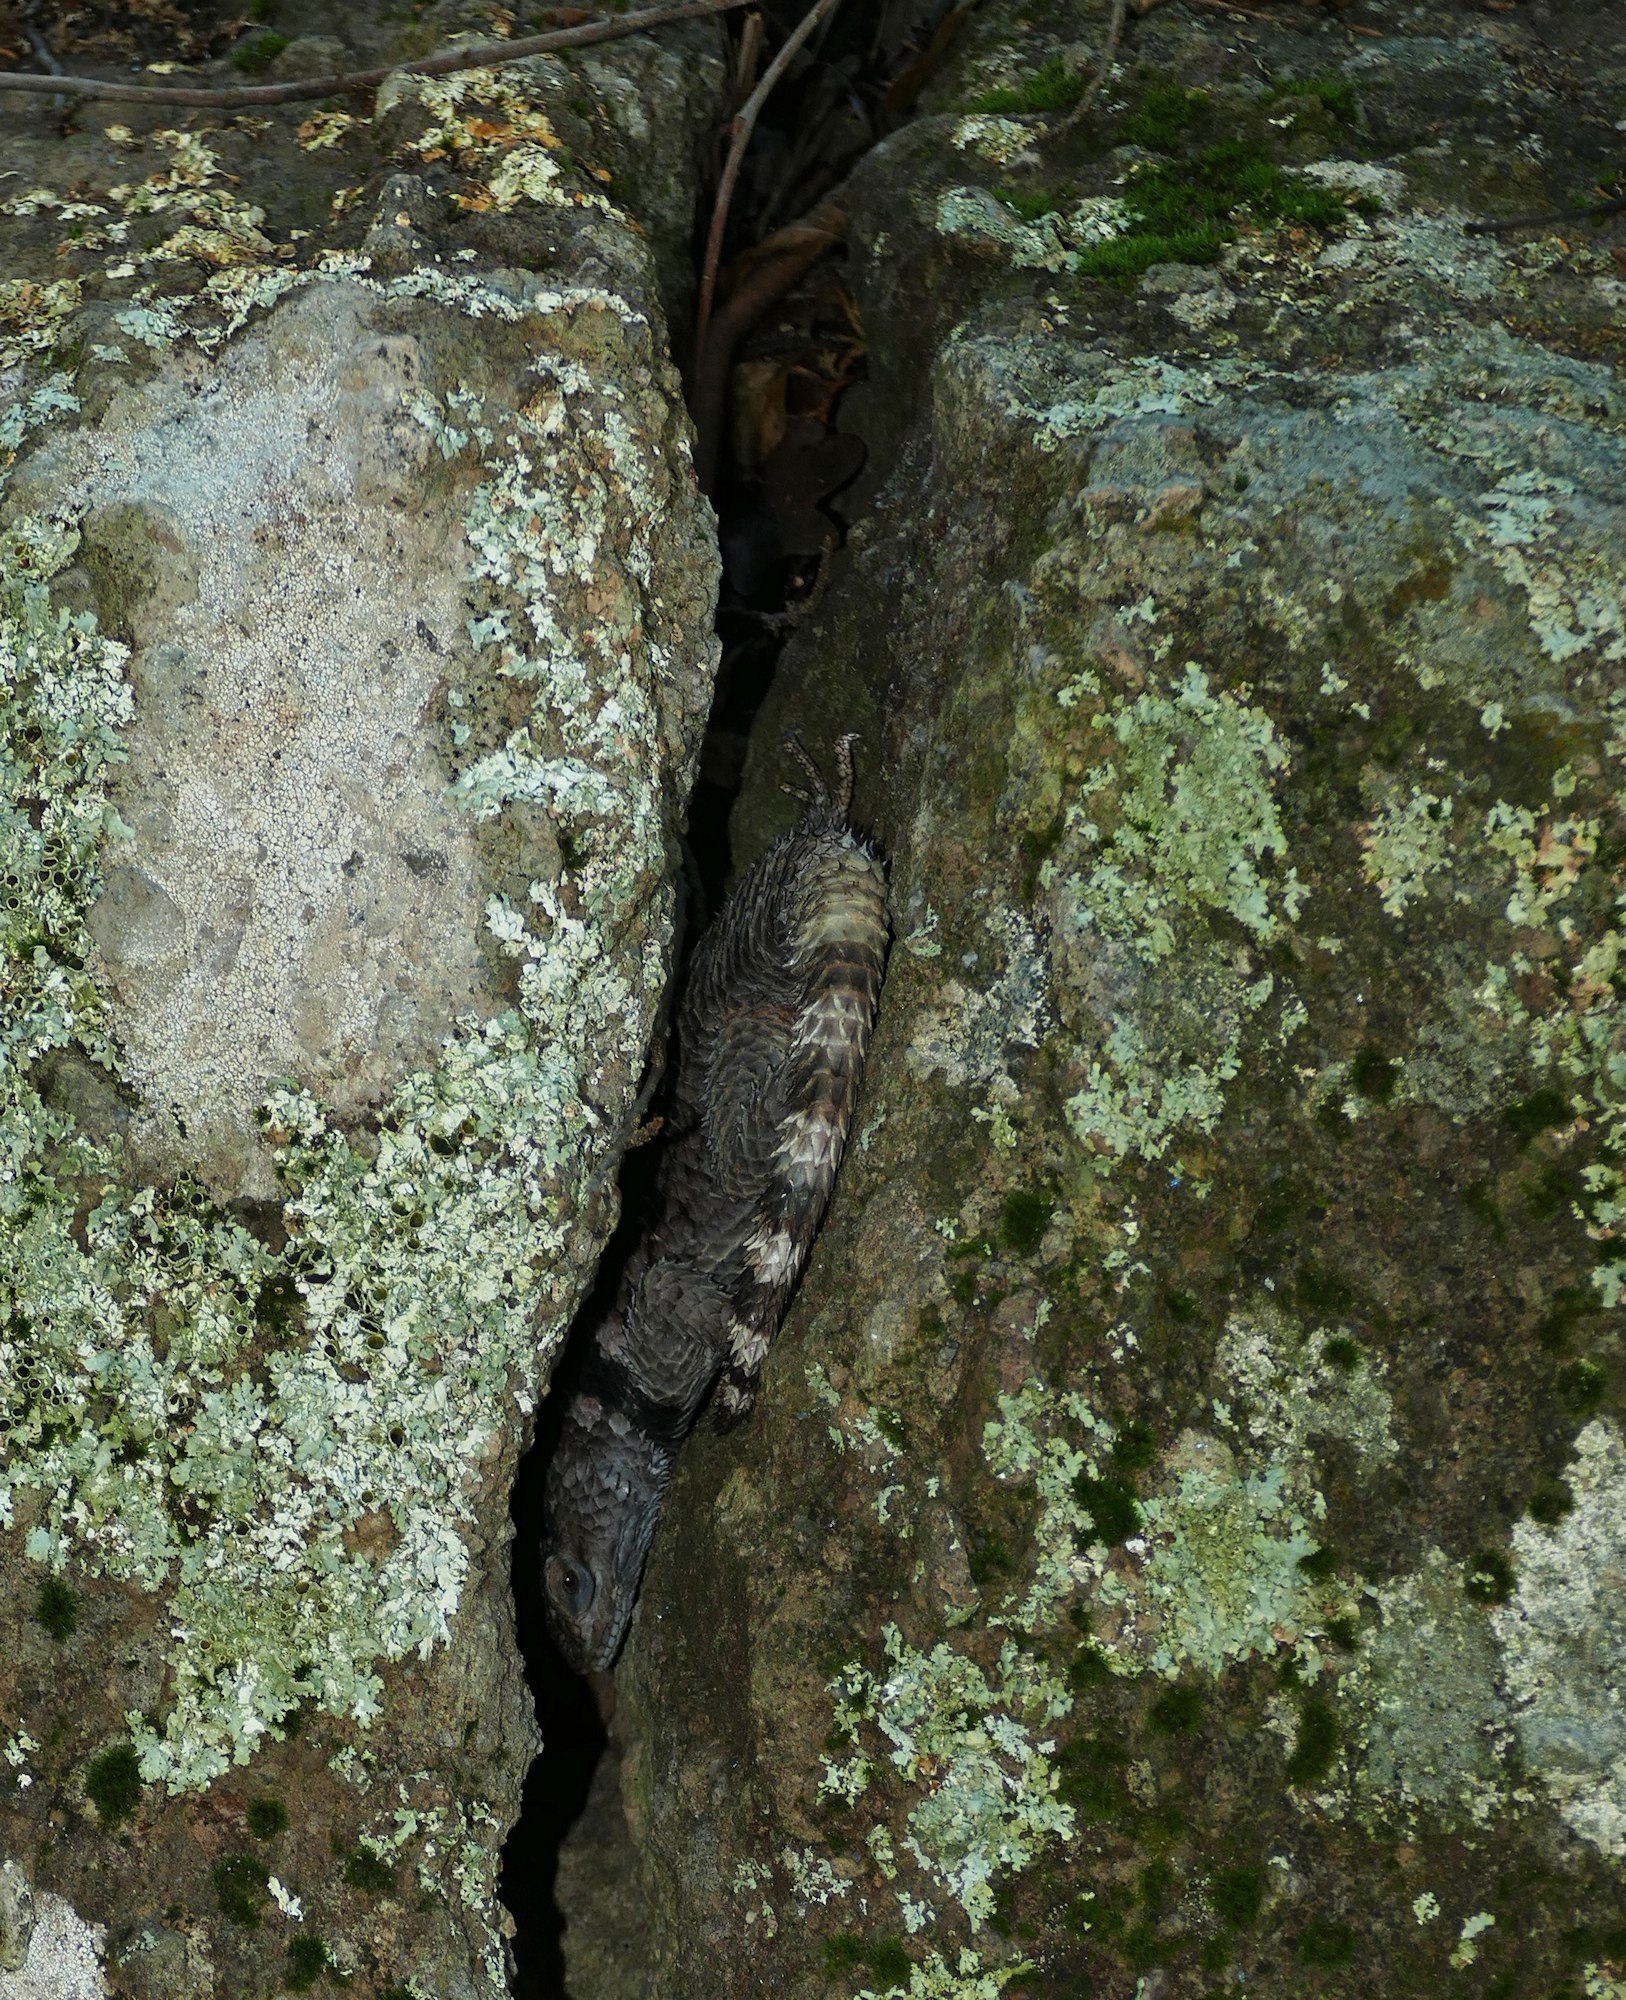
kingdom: Animalia
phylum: Chordata
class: Squamata
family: Phrynosomatidae
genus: Sceloporus
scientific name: Sceloporus poinsettii
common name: Crevice spiny lizard
